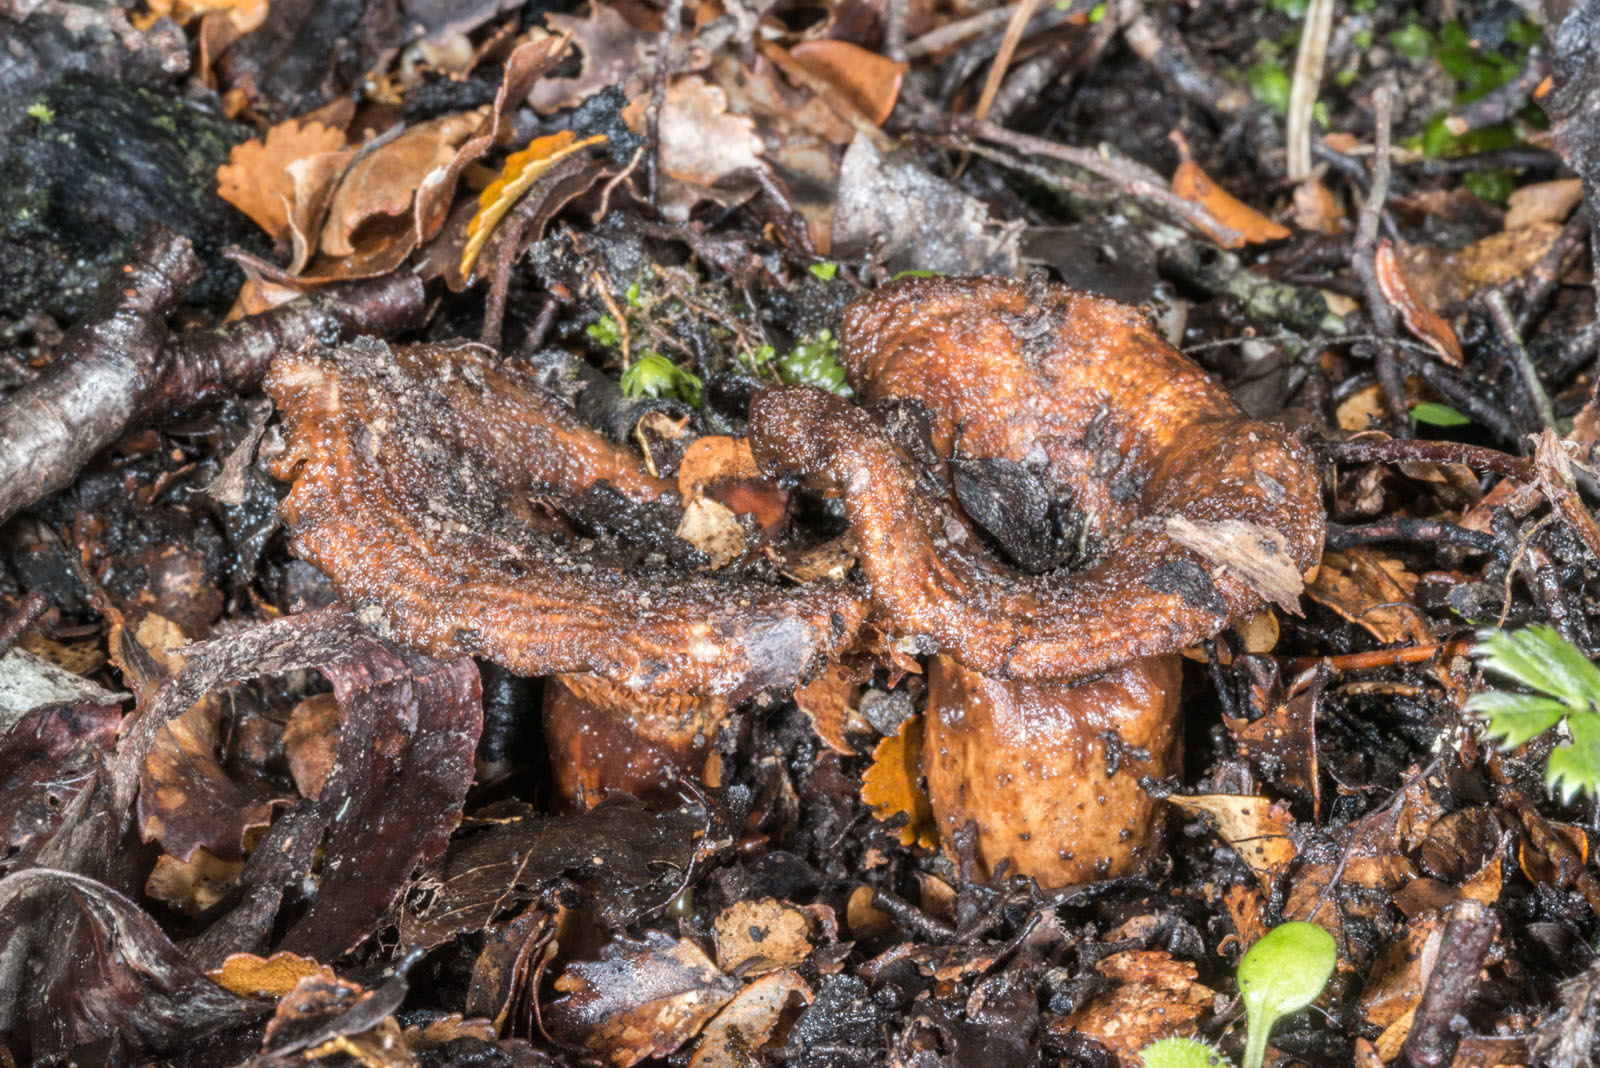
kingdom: Fungi
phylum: Basidiomycota
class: Agaricomycetes
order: Russulales
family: Russulaceae
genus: Lactarius
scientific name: Lactarius tawai
